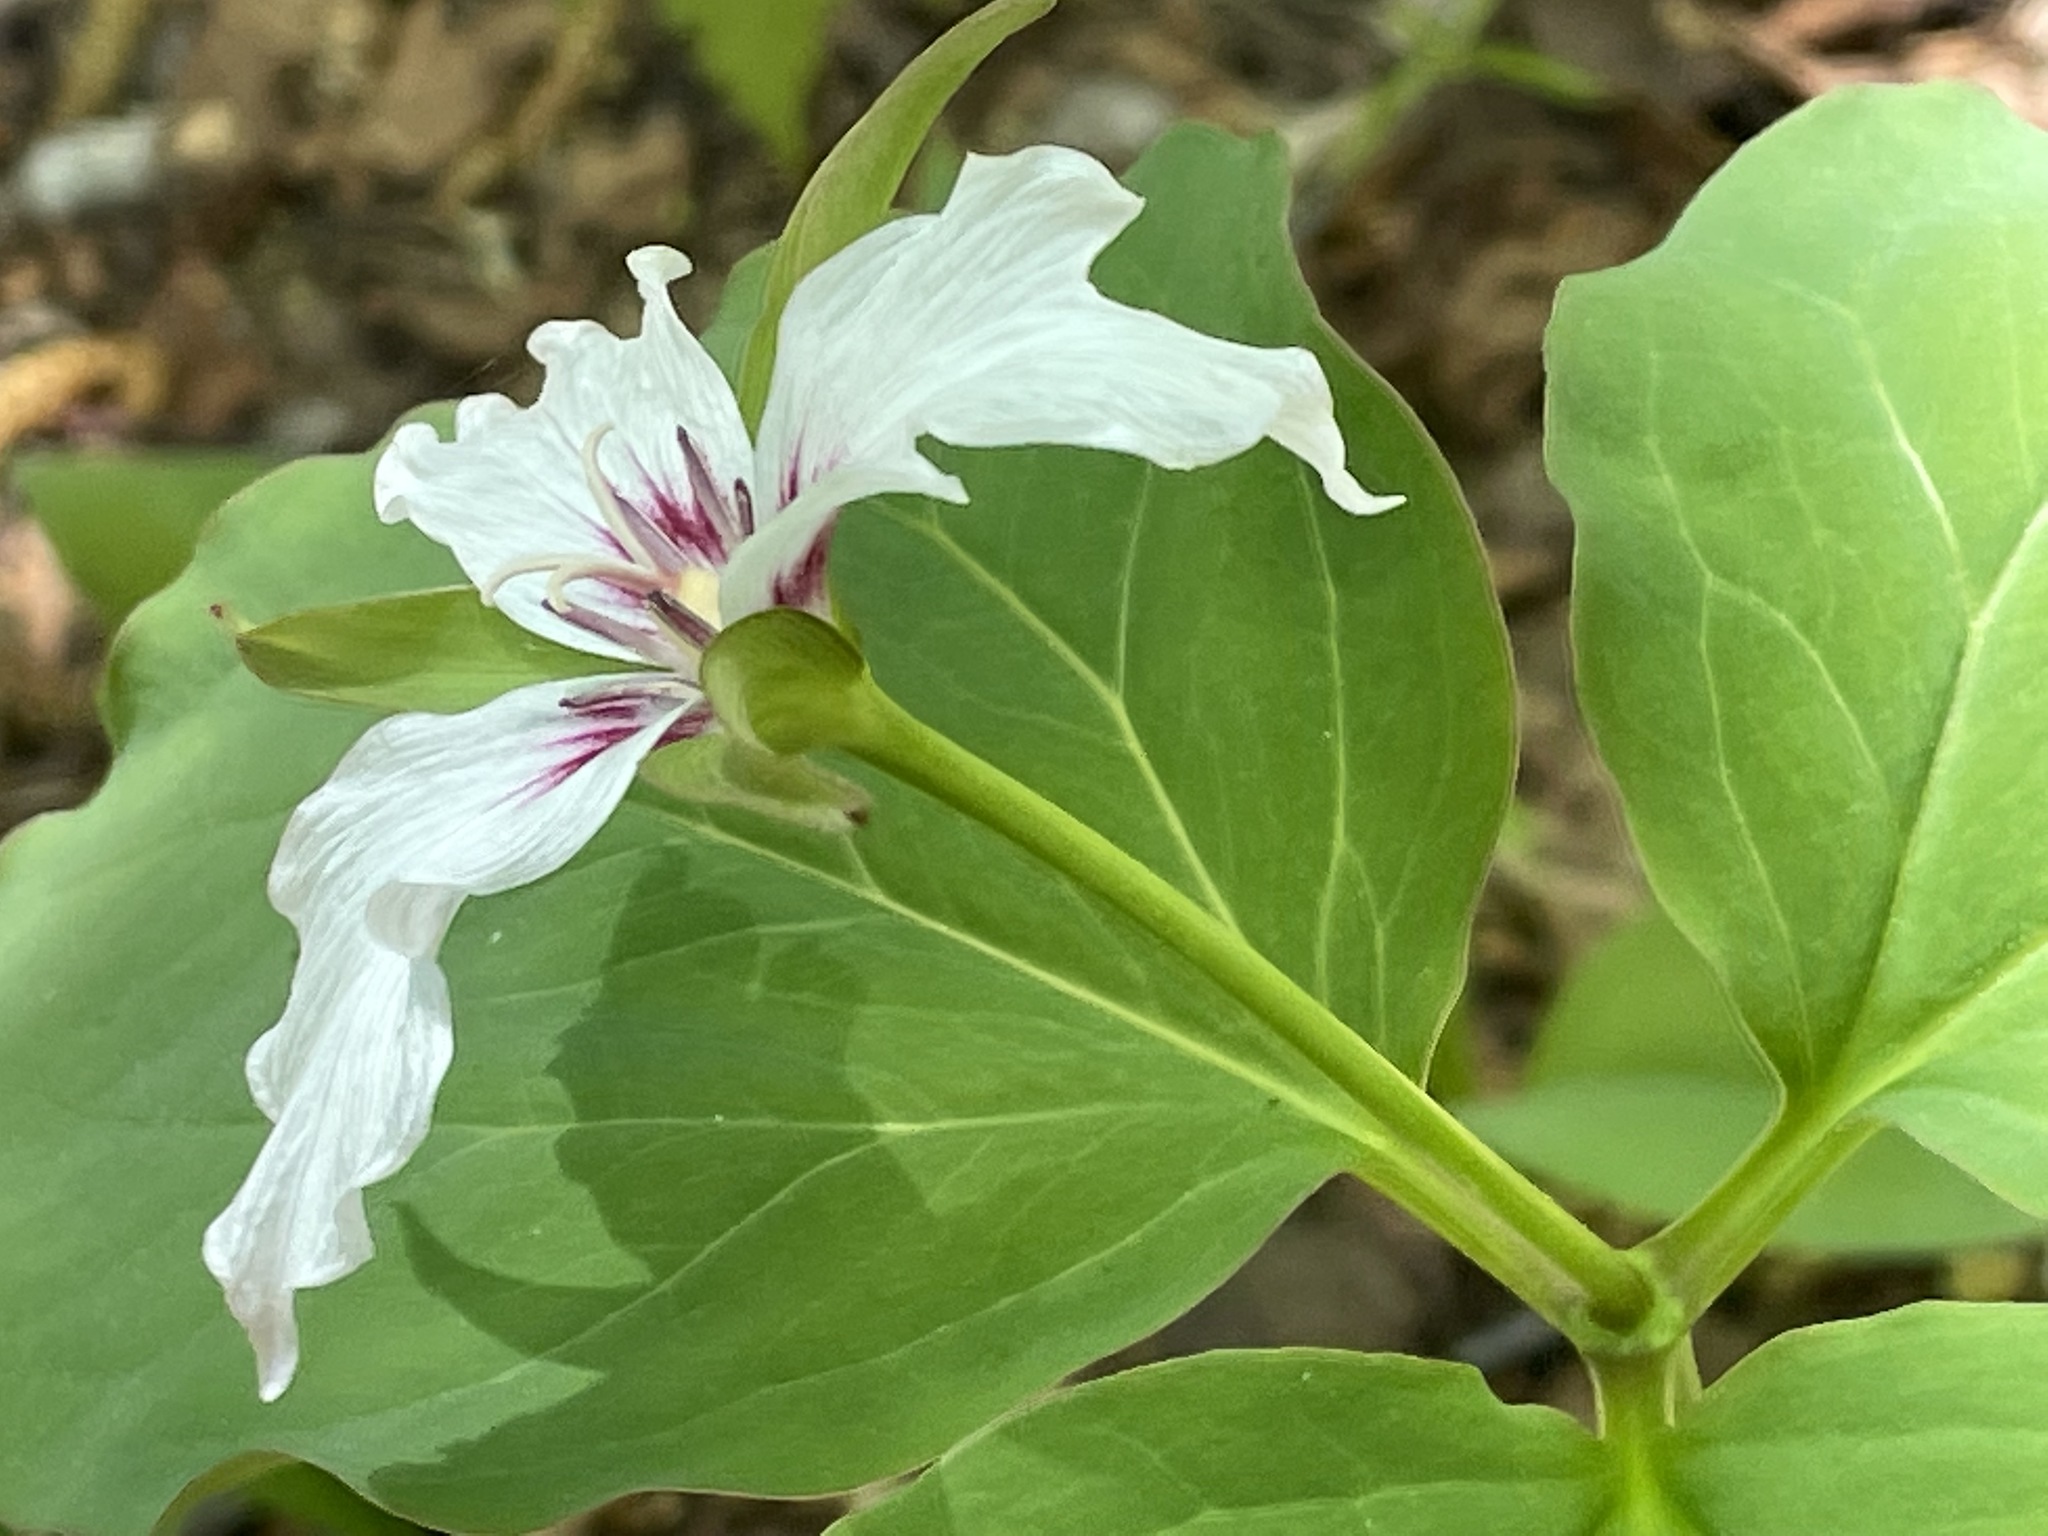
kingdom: Plantae
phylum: Tracheophyta
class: Liliopsida
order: Liliales
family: Melanthiaceae
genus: Trillium
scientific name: Trillium undulatum
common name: Paint trillium
